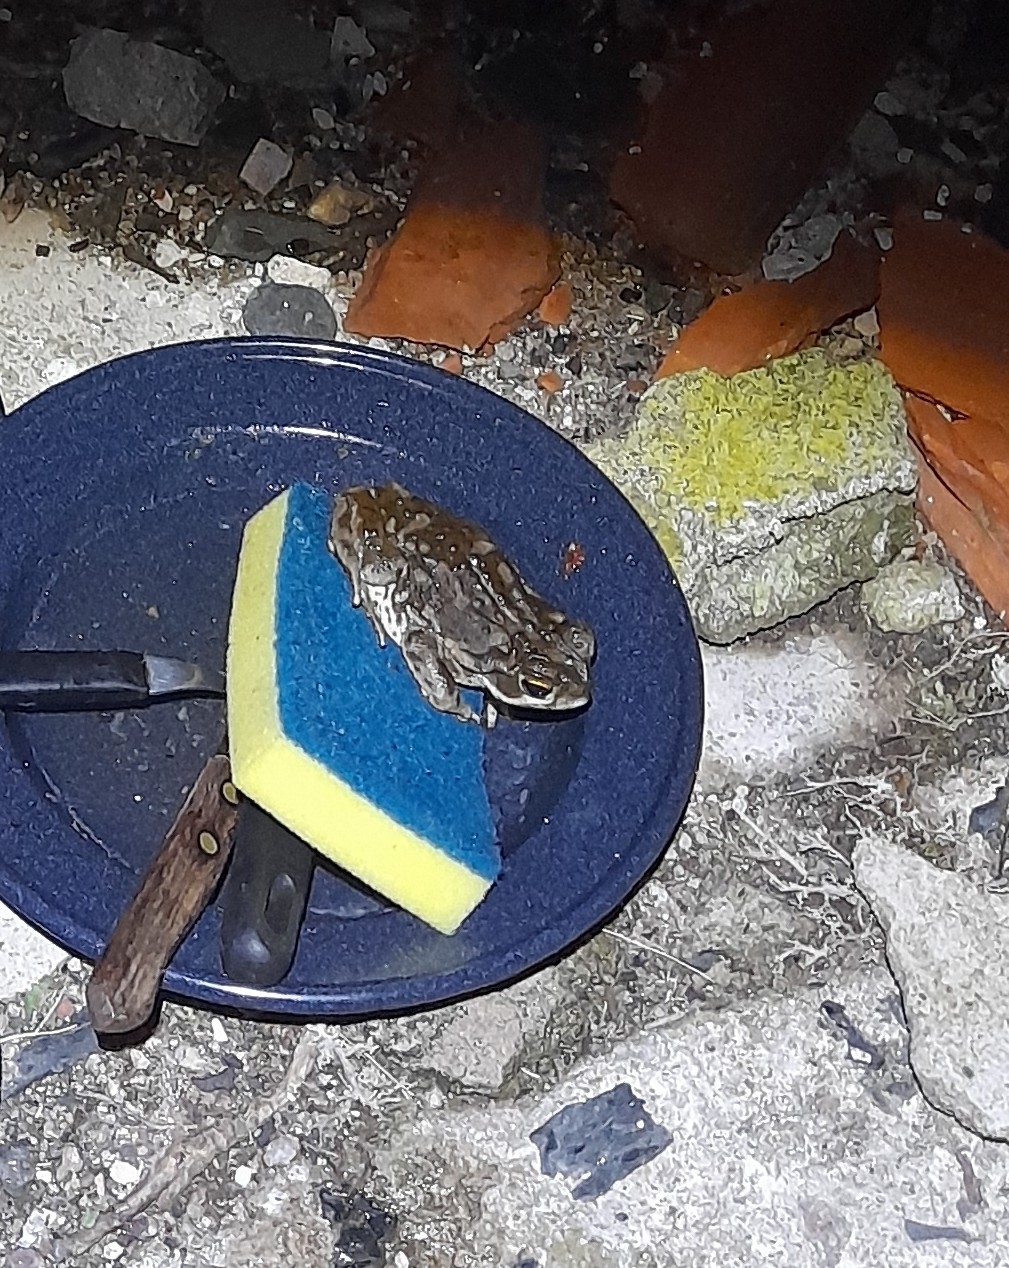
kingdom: Animalia
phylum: Chordata
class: Amphibia
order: Anura
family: Bufonidae
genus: Rhinella
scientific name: Rhinella arenarum
